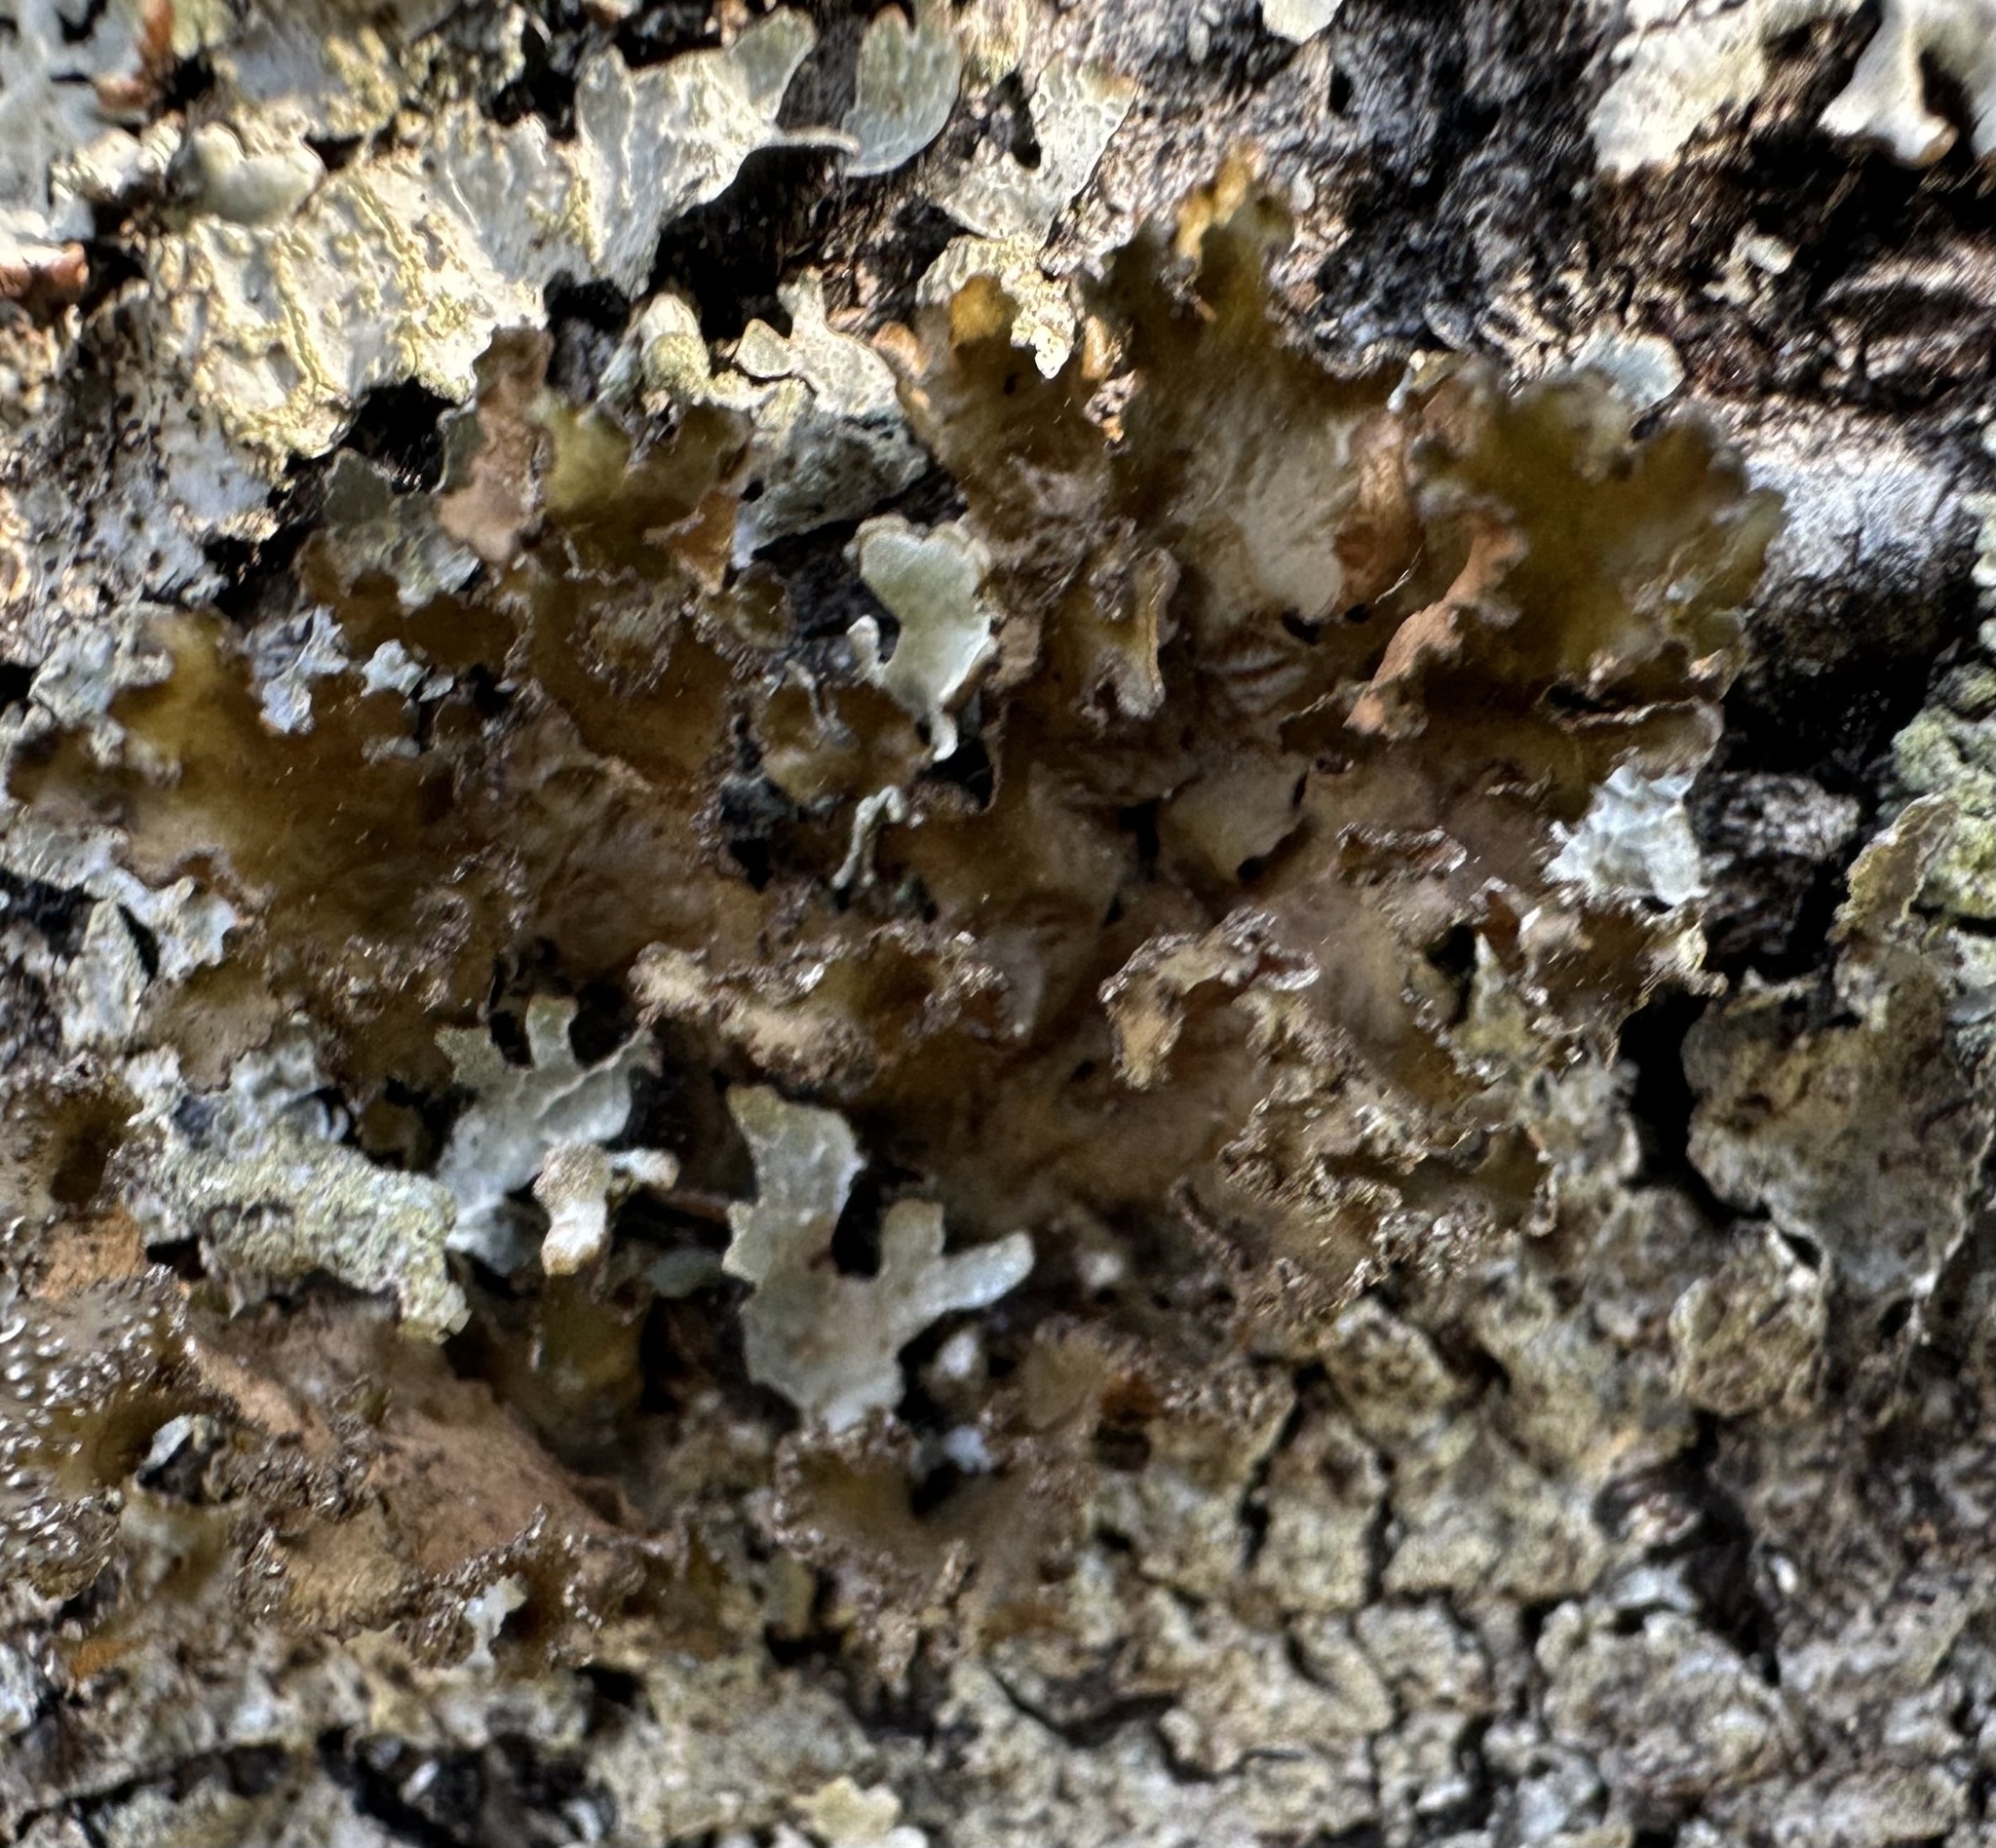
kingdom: Fungi
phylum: Ascomycota
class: Lecanoromycetes
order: Lecanorales
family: Parmeliaceae
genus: Nephromopsis
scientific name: Nephromopsis chlorophylla
